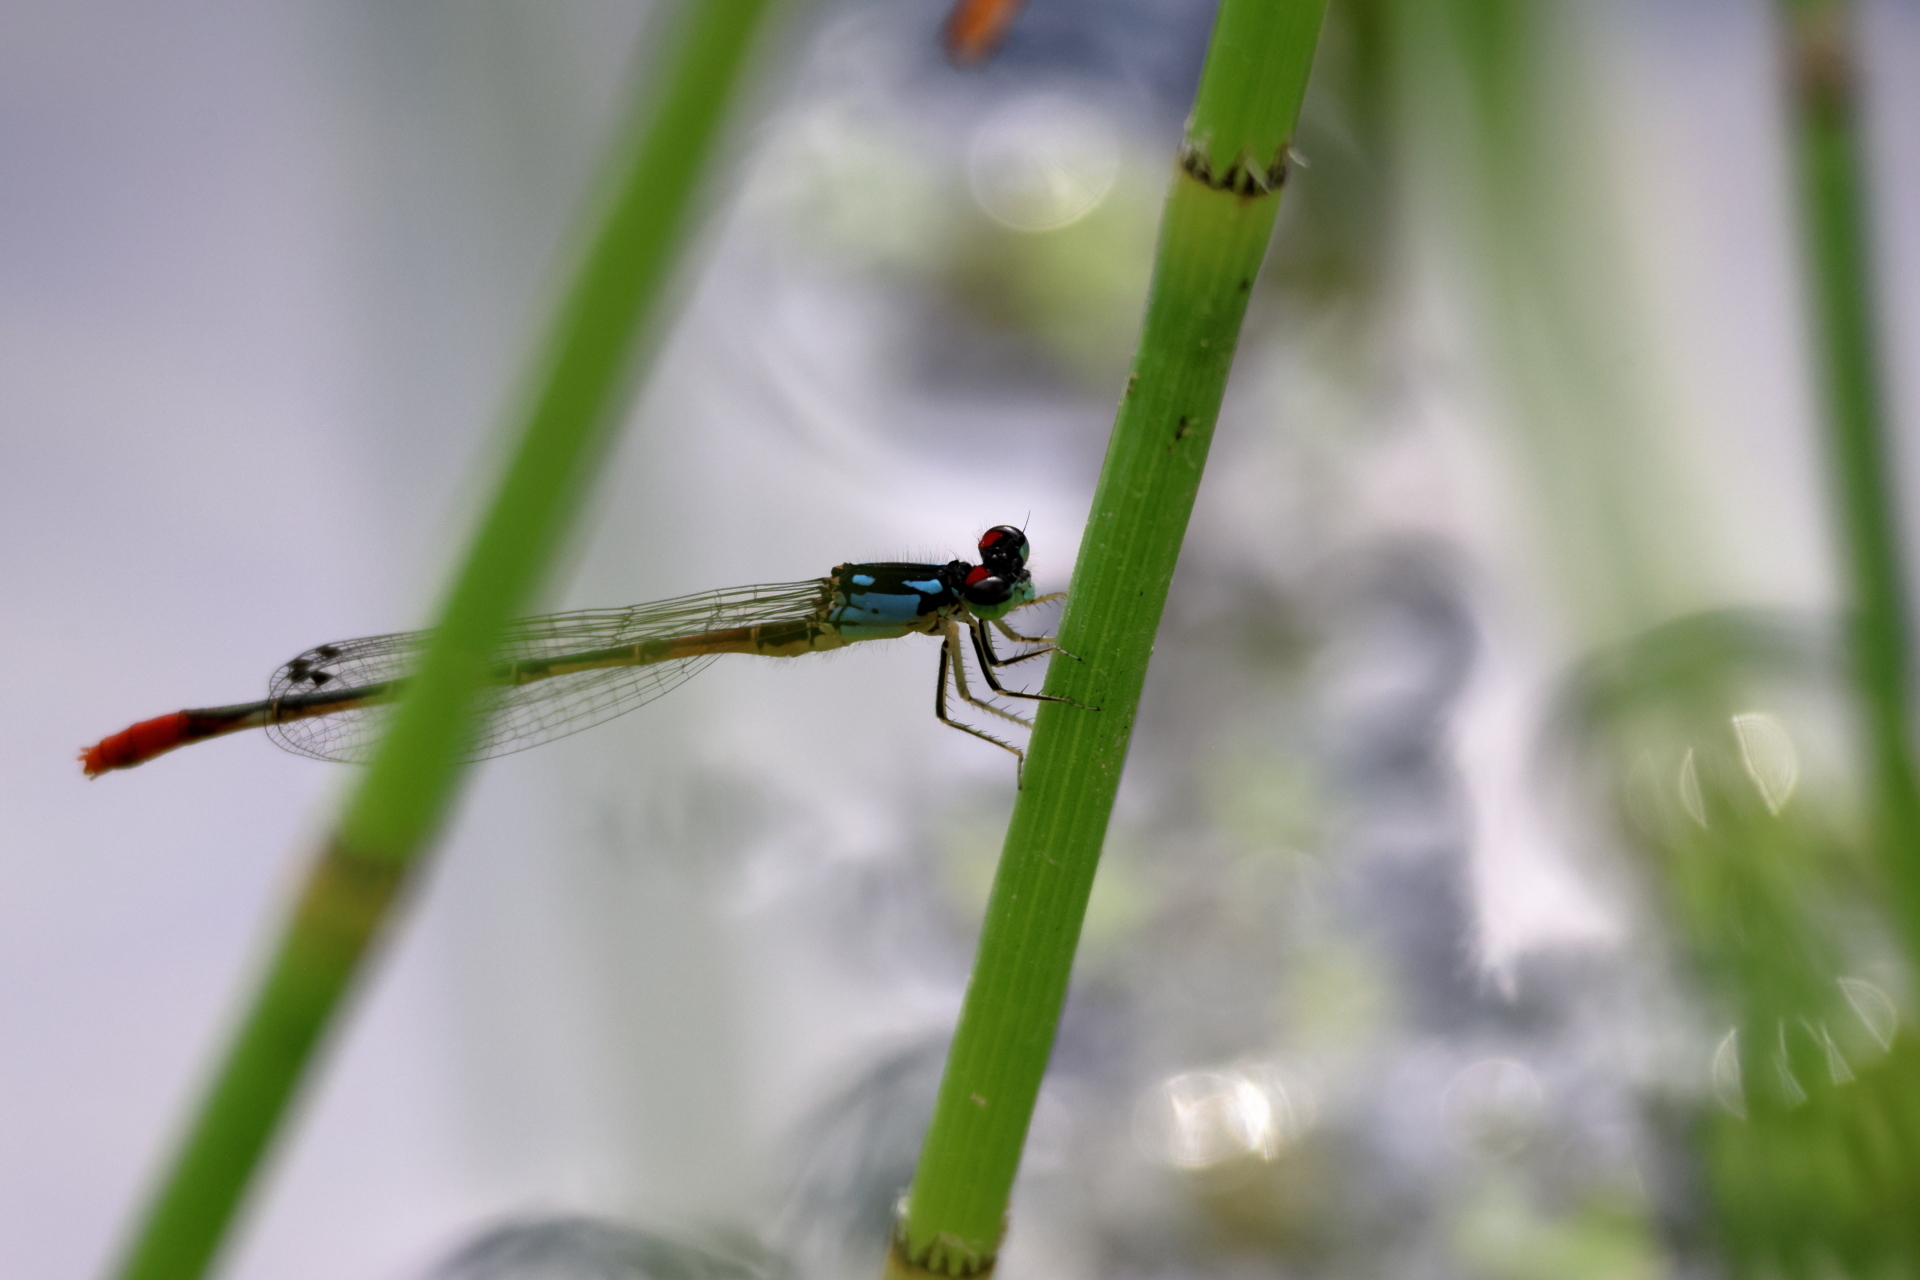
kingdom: Animalia
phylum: Arthropoda
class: Insecta
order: Odonata
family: Coenagrionidae
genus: Hesperagrion
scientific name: Hesperagrion heterodoxum
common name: Painted damsel
